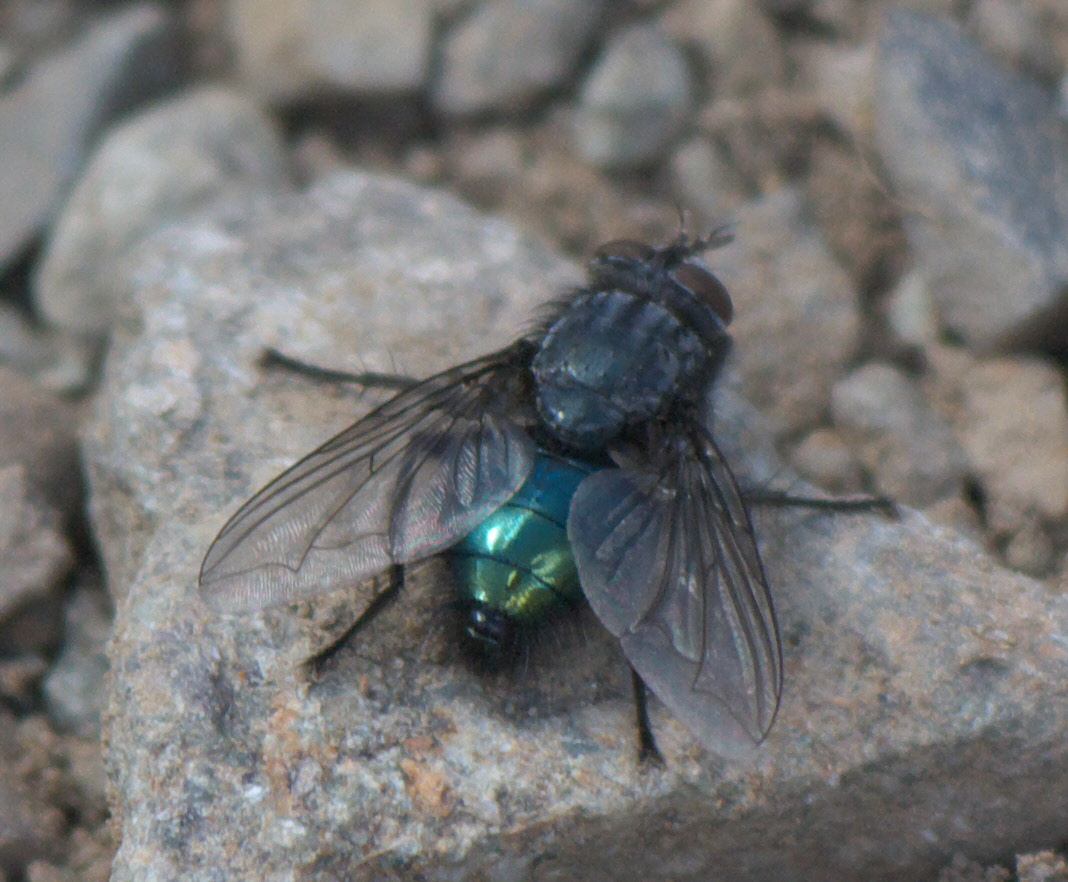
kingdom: Animalia
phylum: Arthropoda
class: Insecta
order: Diptera
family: Calliphoridae
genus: Cynomya
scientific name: Cynomya cadaverina
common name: Shiny blue bottle fly
